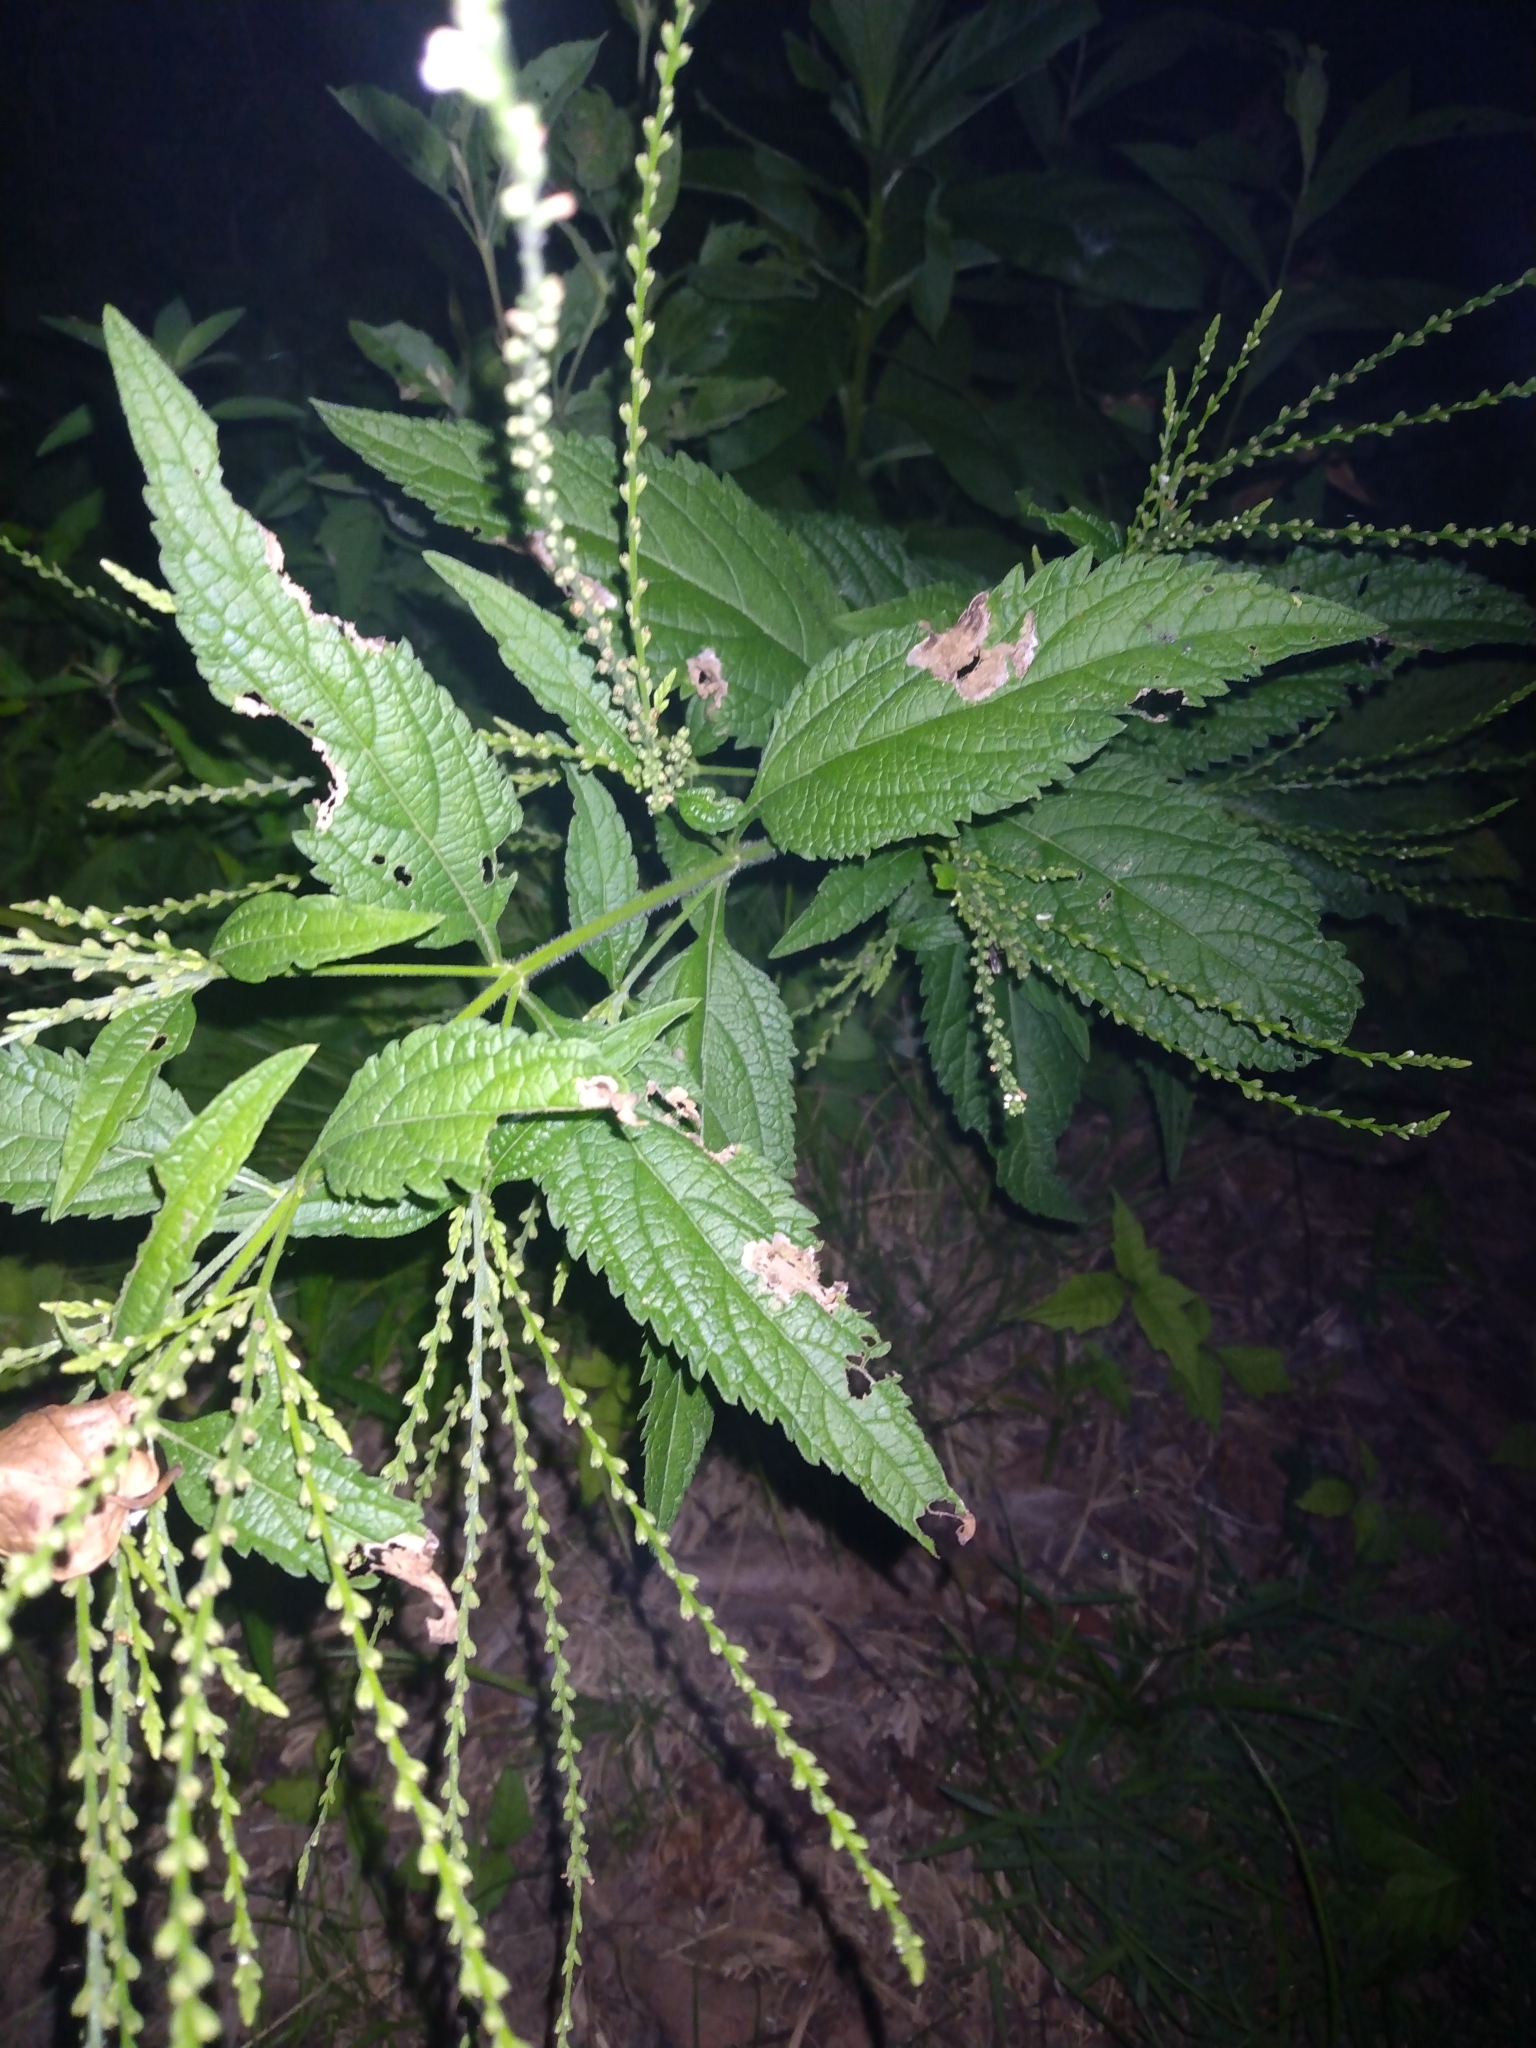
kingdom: Plantae
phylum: Tracheophyta
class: Magnoliopsida
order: Lamiales
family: Verbenaceae
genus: Verbena
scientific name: Verbena urticifolia
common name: Nettle-leaved vervain
